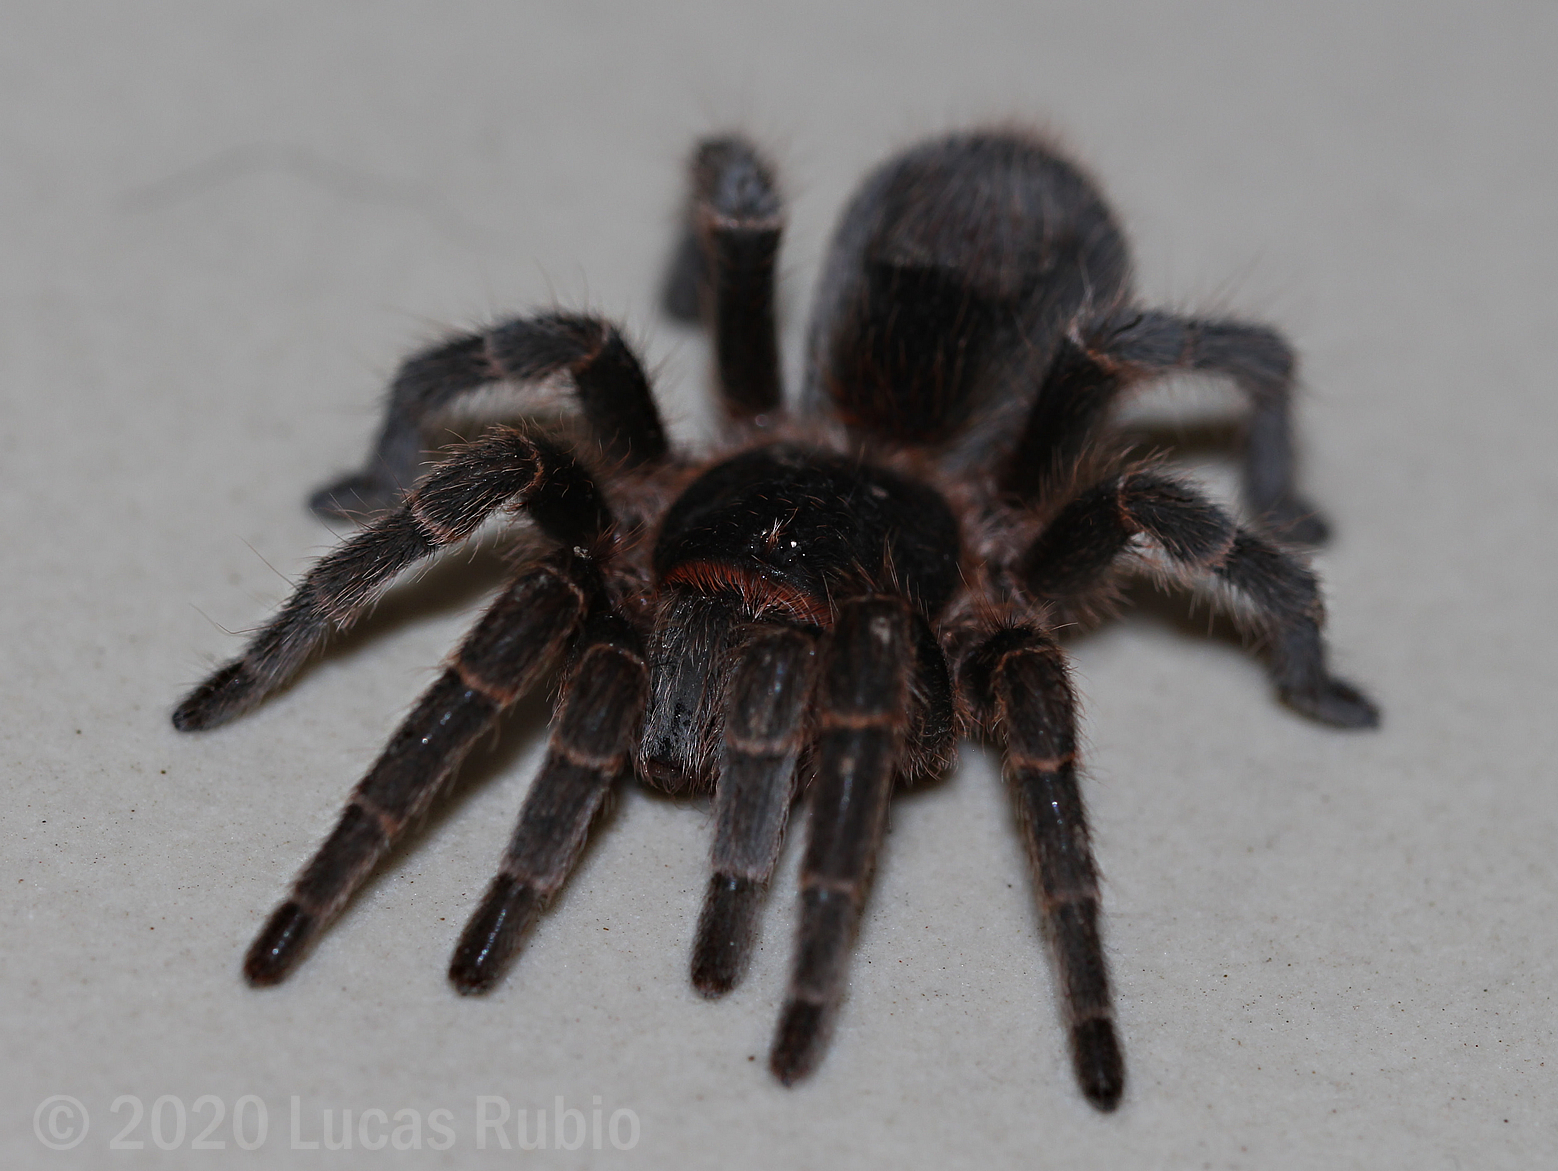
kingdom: Animalia
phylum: Arthropoda
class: Arachnida
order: Araneae
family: Theraphosidae
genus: Homoeomma
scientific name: Homoeomma uruguayense
